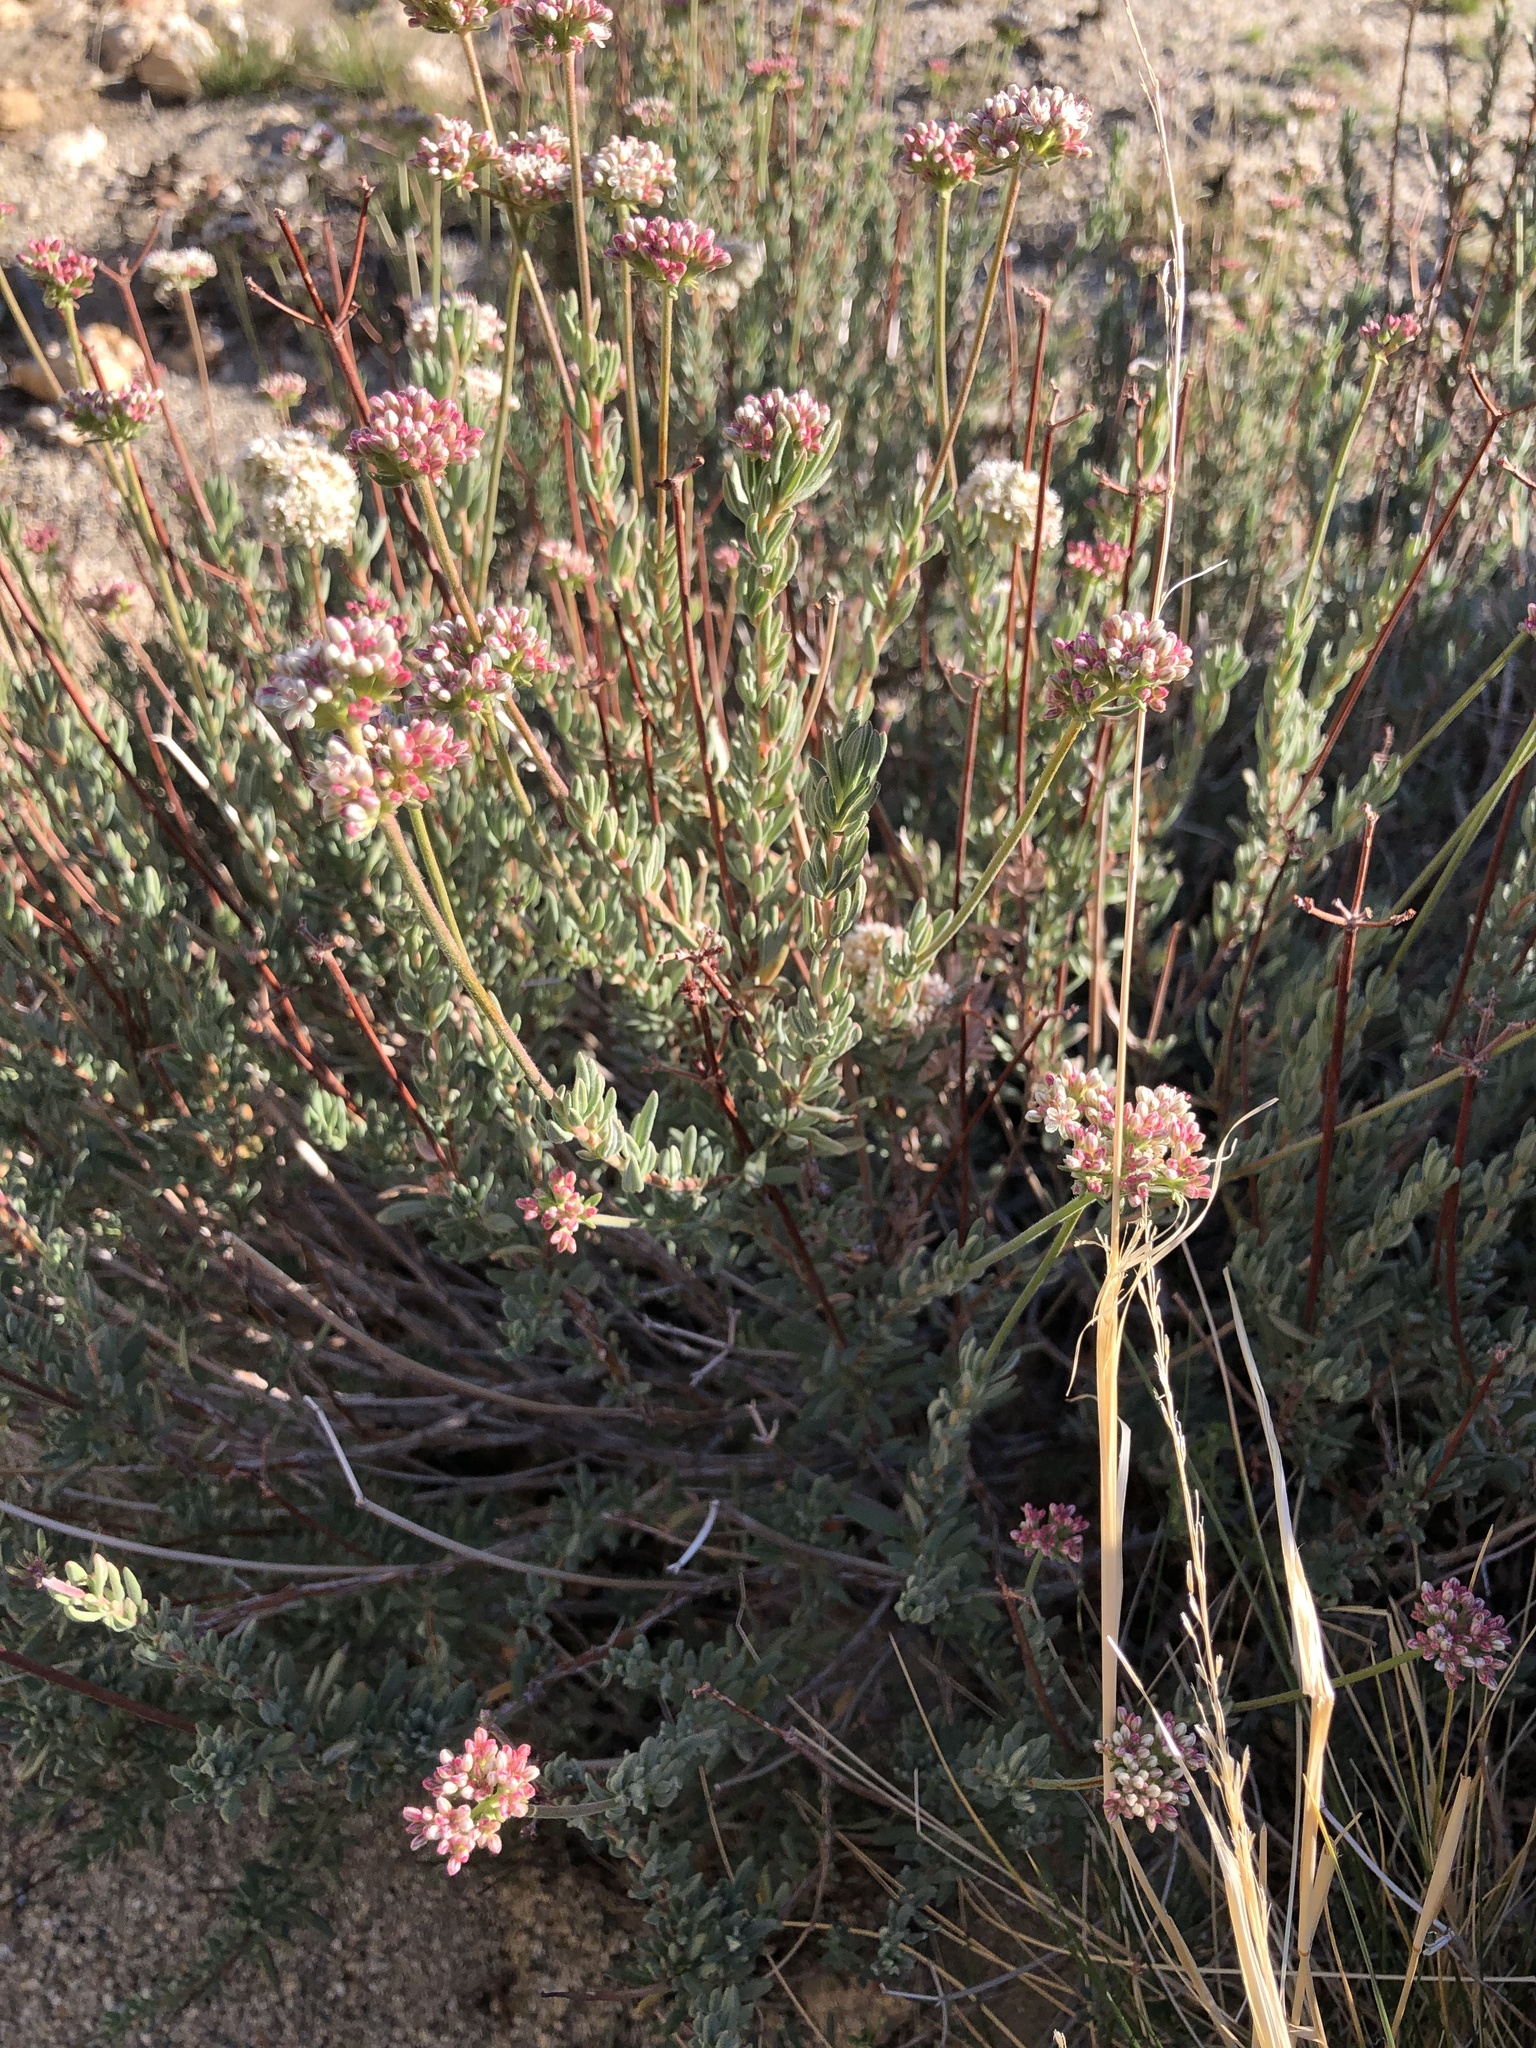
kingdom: Plantae
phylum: Tracheophyta
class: Magnoliopsida
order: Caryophyllales
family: Polygonaceae
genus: Eriogonum
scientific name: Eriogonum fasciculatum
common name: California wild buckwheat
